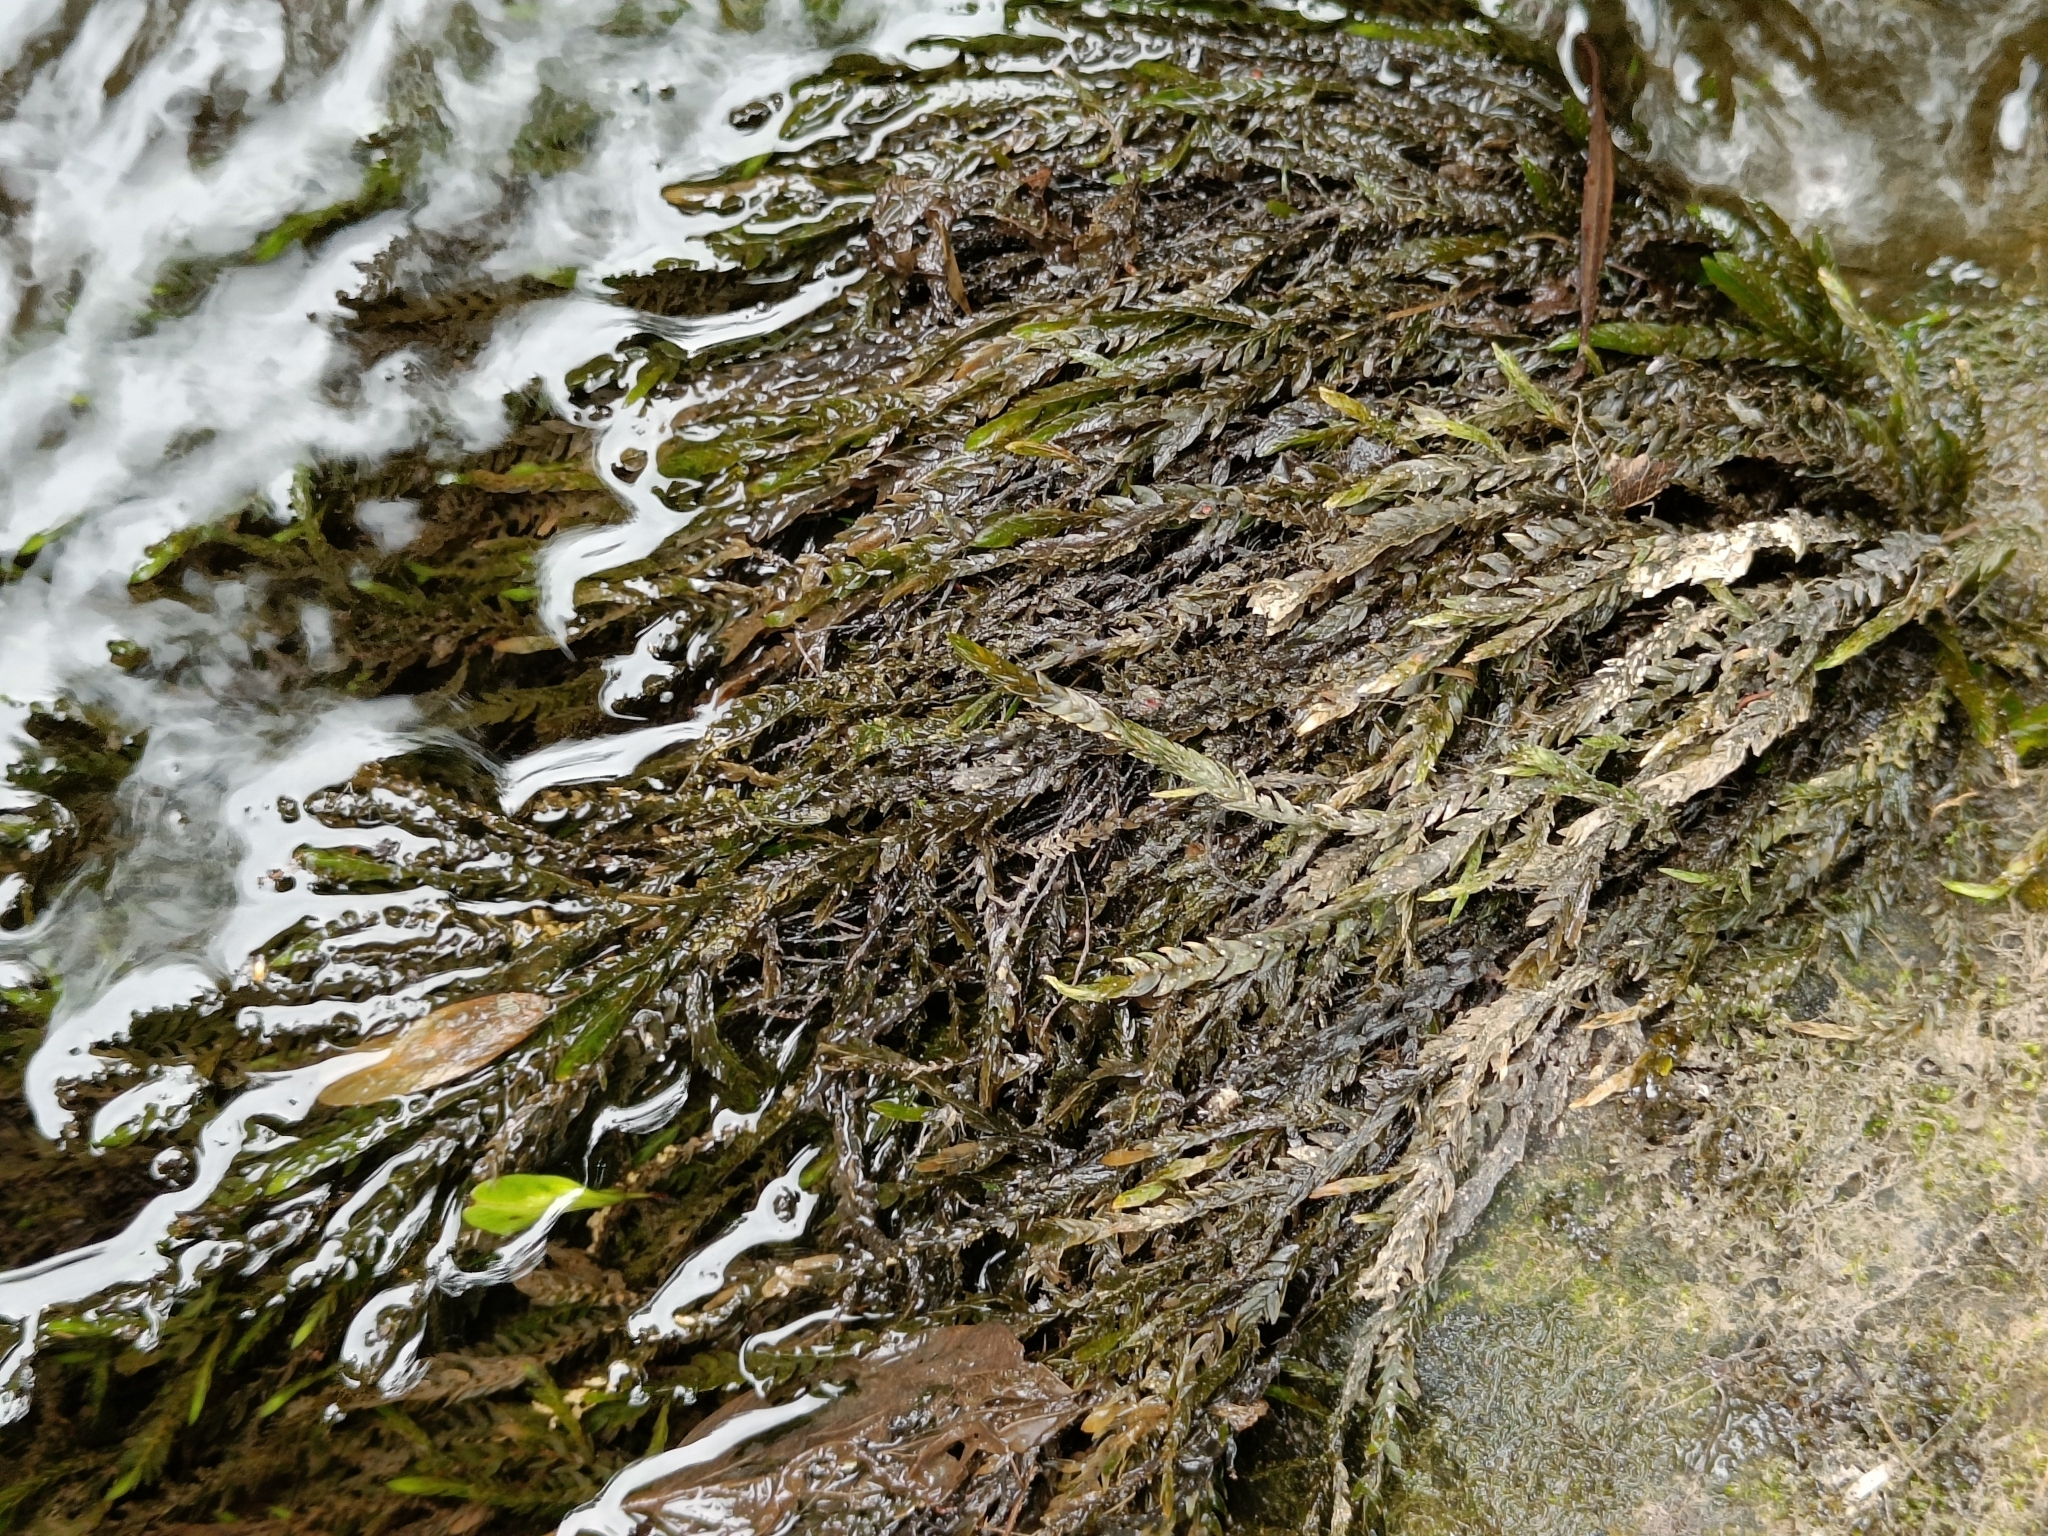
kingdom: Plantae
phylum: Bryophyta
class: Bryopsida
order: Hypnales
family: Fontinalaceae
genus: Fontinalis
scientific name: Fontinalis antipyretica
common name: Greater water-moss
